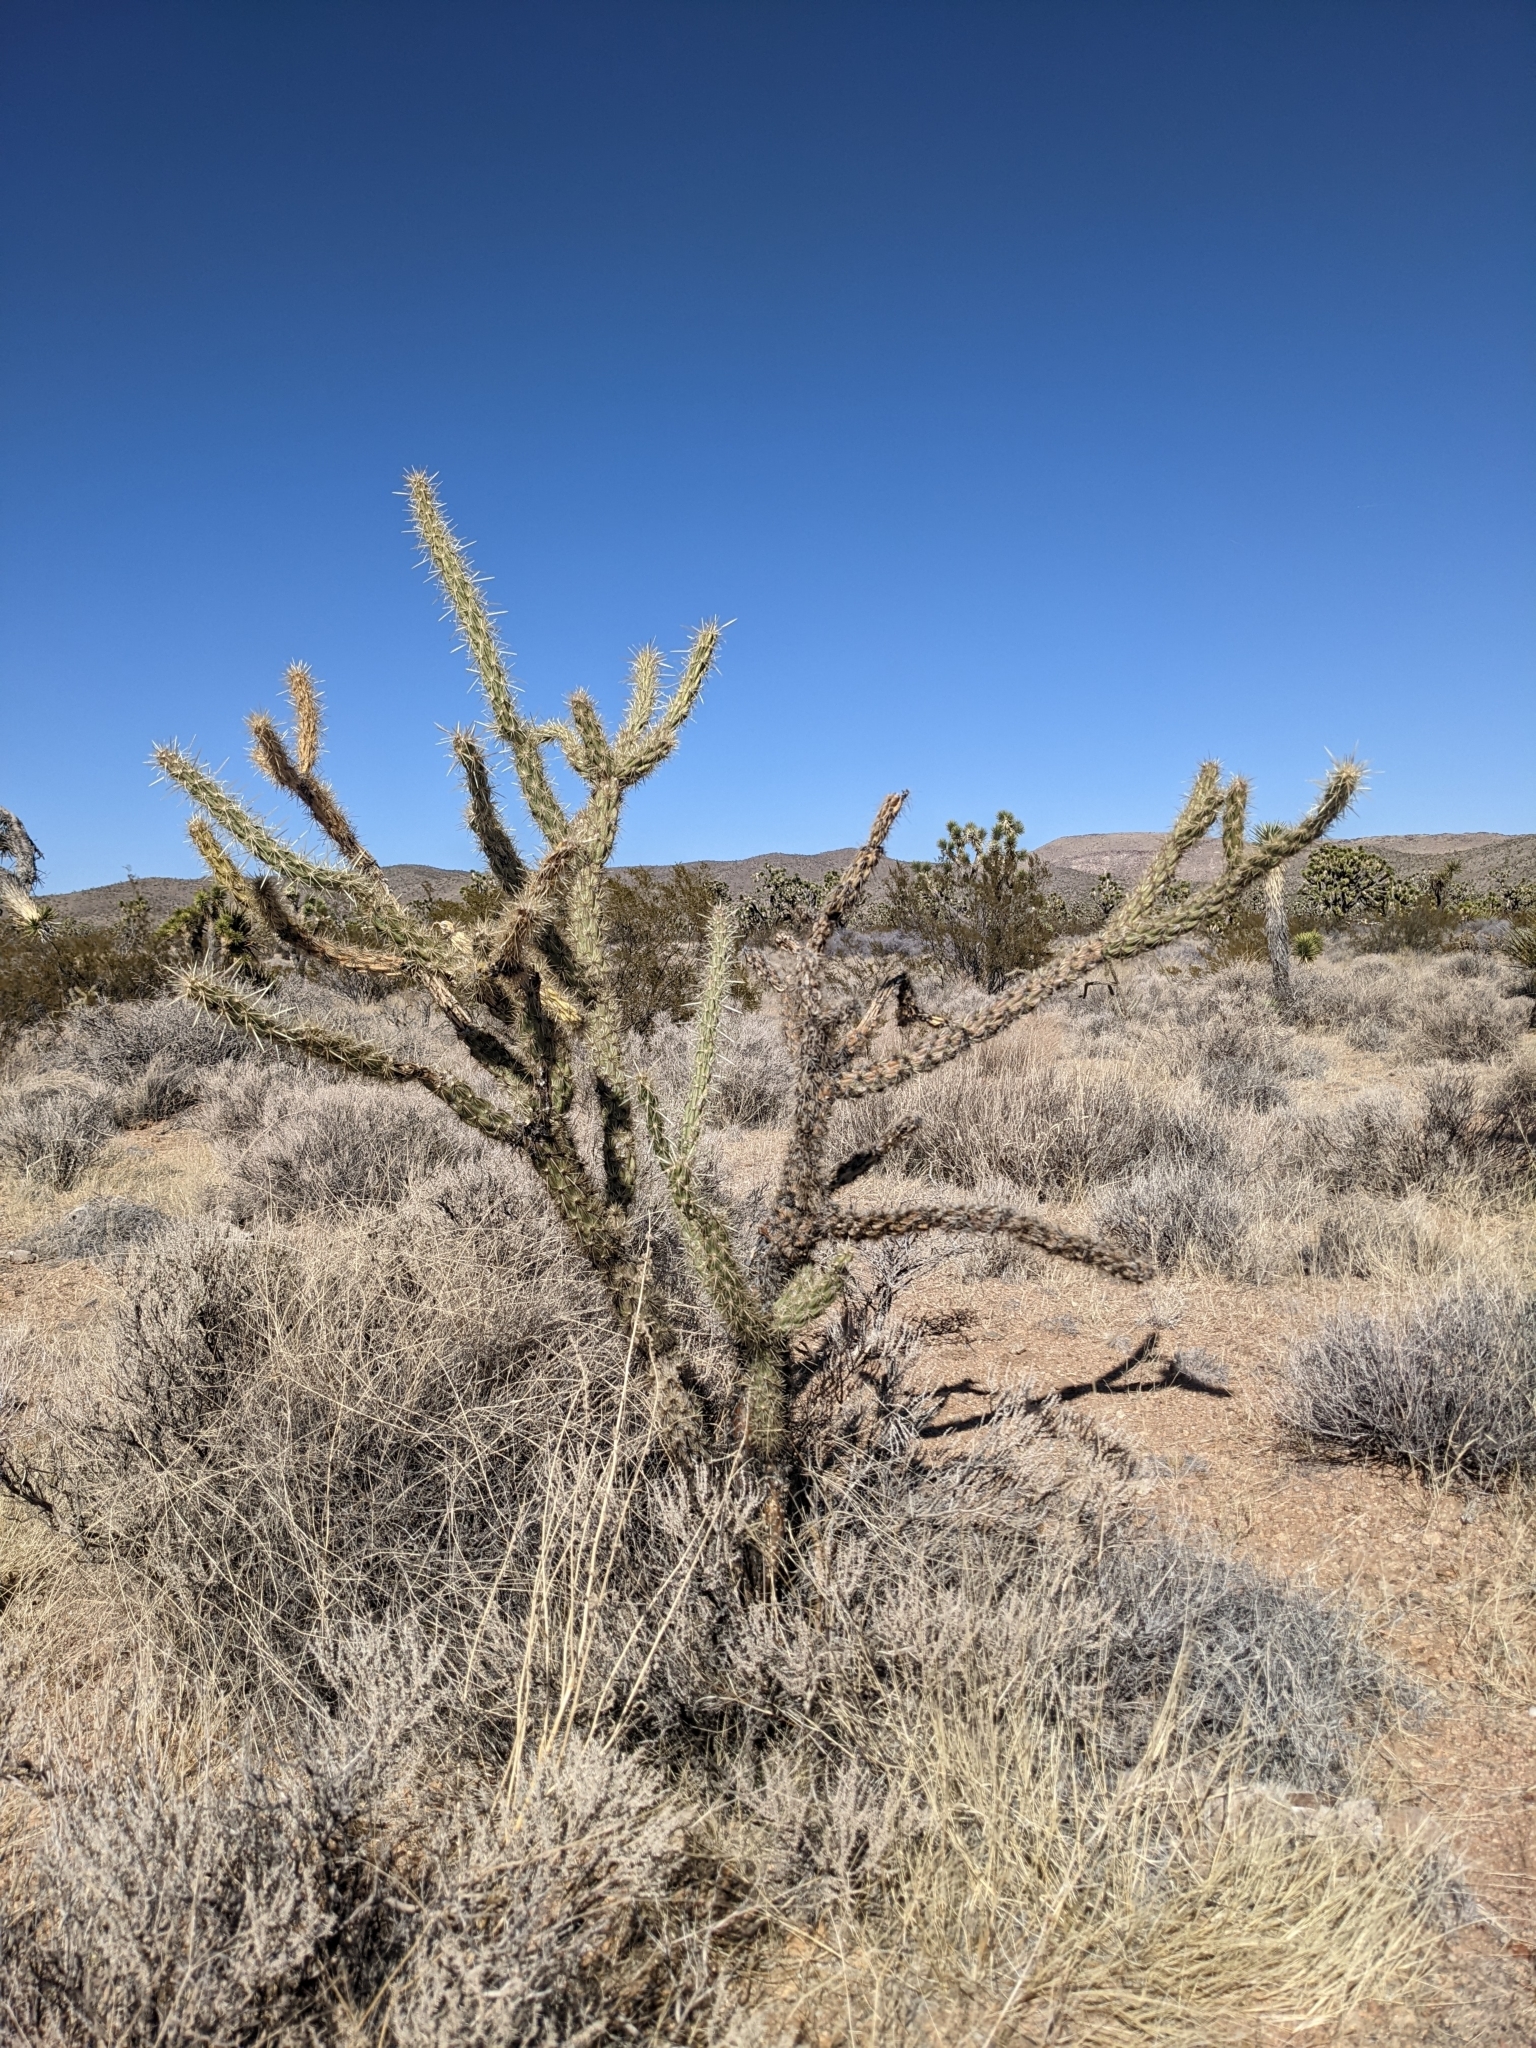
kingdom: Plantae
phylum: Tracheophyta
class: Magnoliopsida
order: Caryophyllales
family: Cactaceae
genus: Cylindropuntia
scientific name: Cylindropuntia acanthocarpa
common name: Buckhorn cholla
